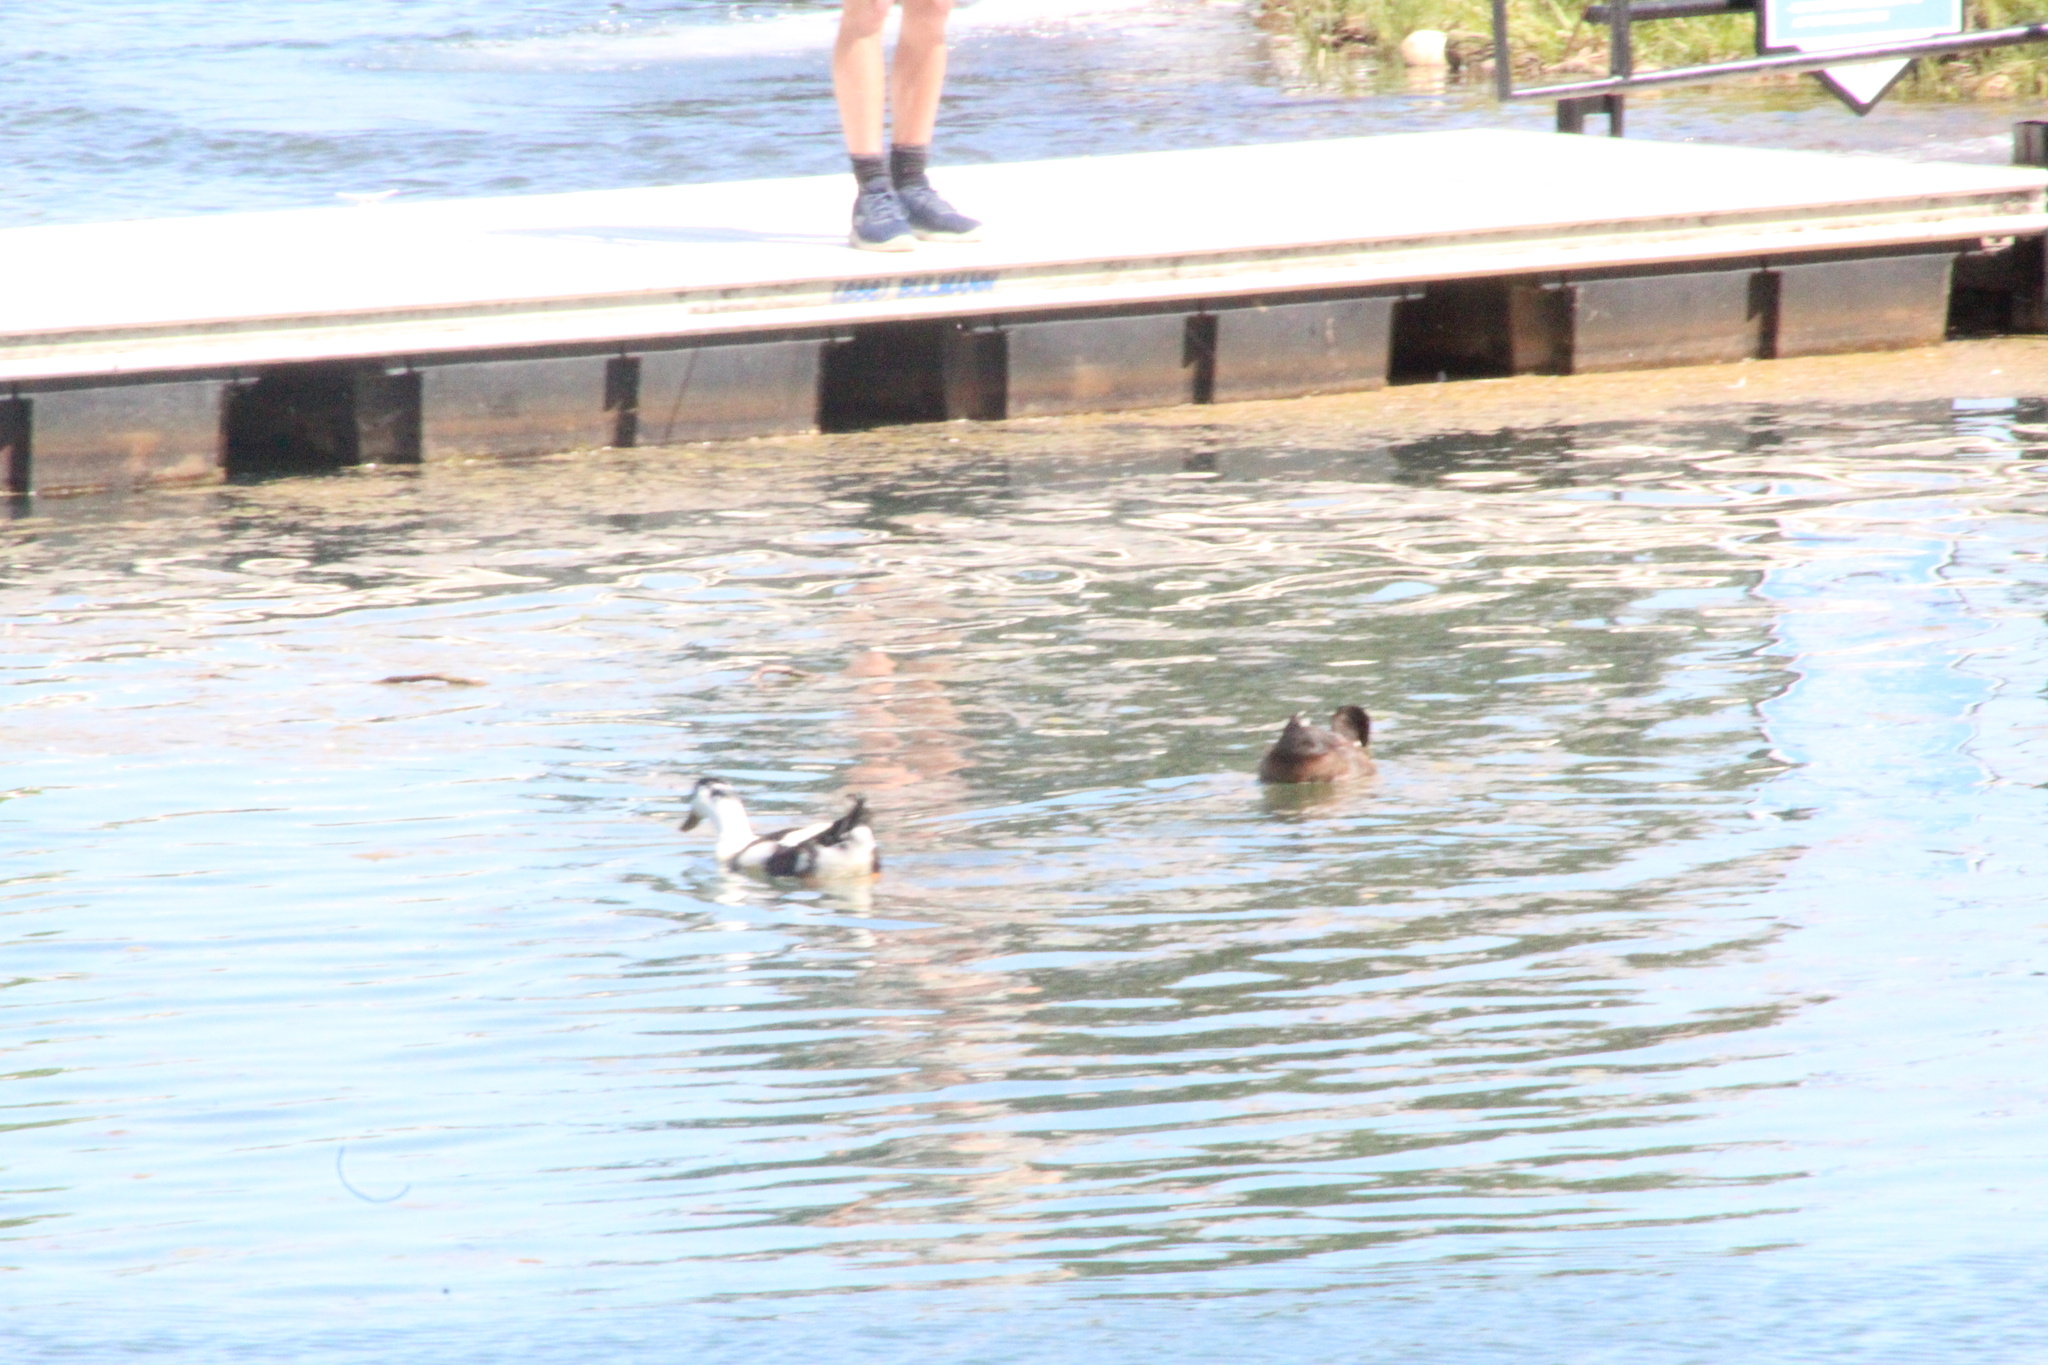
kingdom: Animalia
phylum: Chordata
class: Aves
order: Anseriformes
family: Anatidae
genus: Anas
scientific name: Anas platyrhynchos
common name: Mallard
